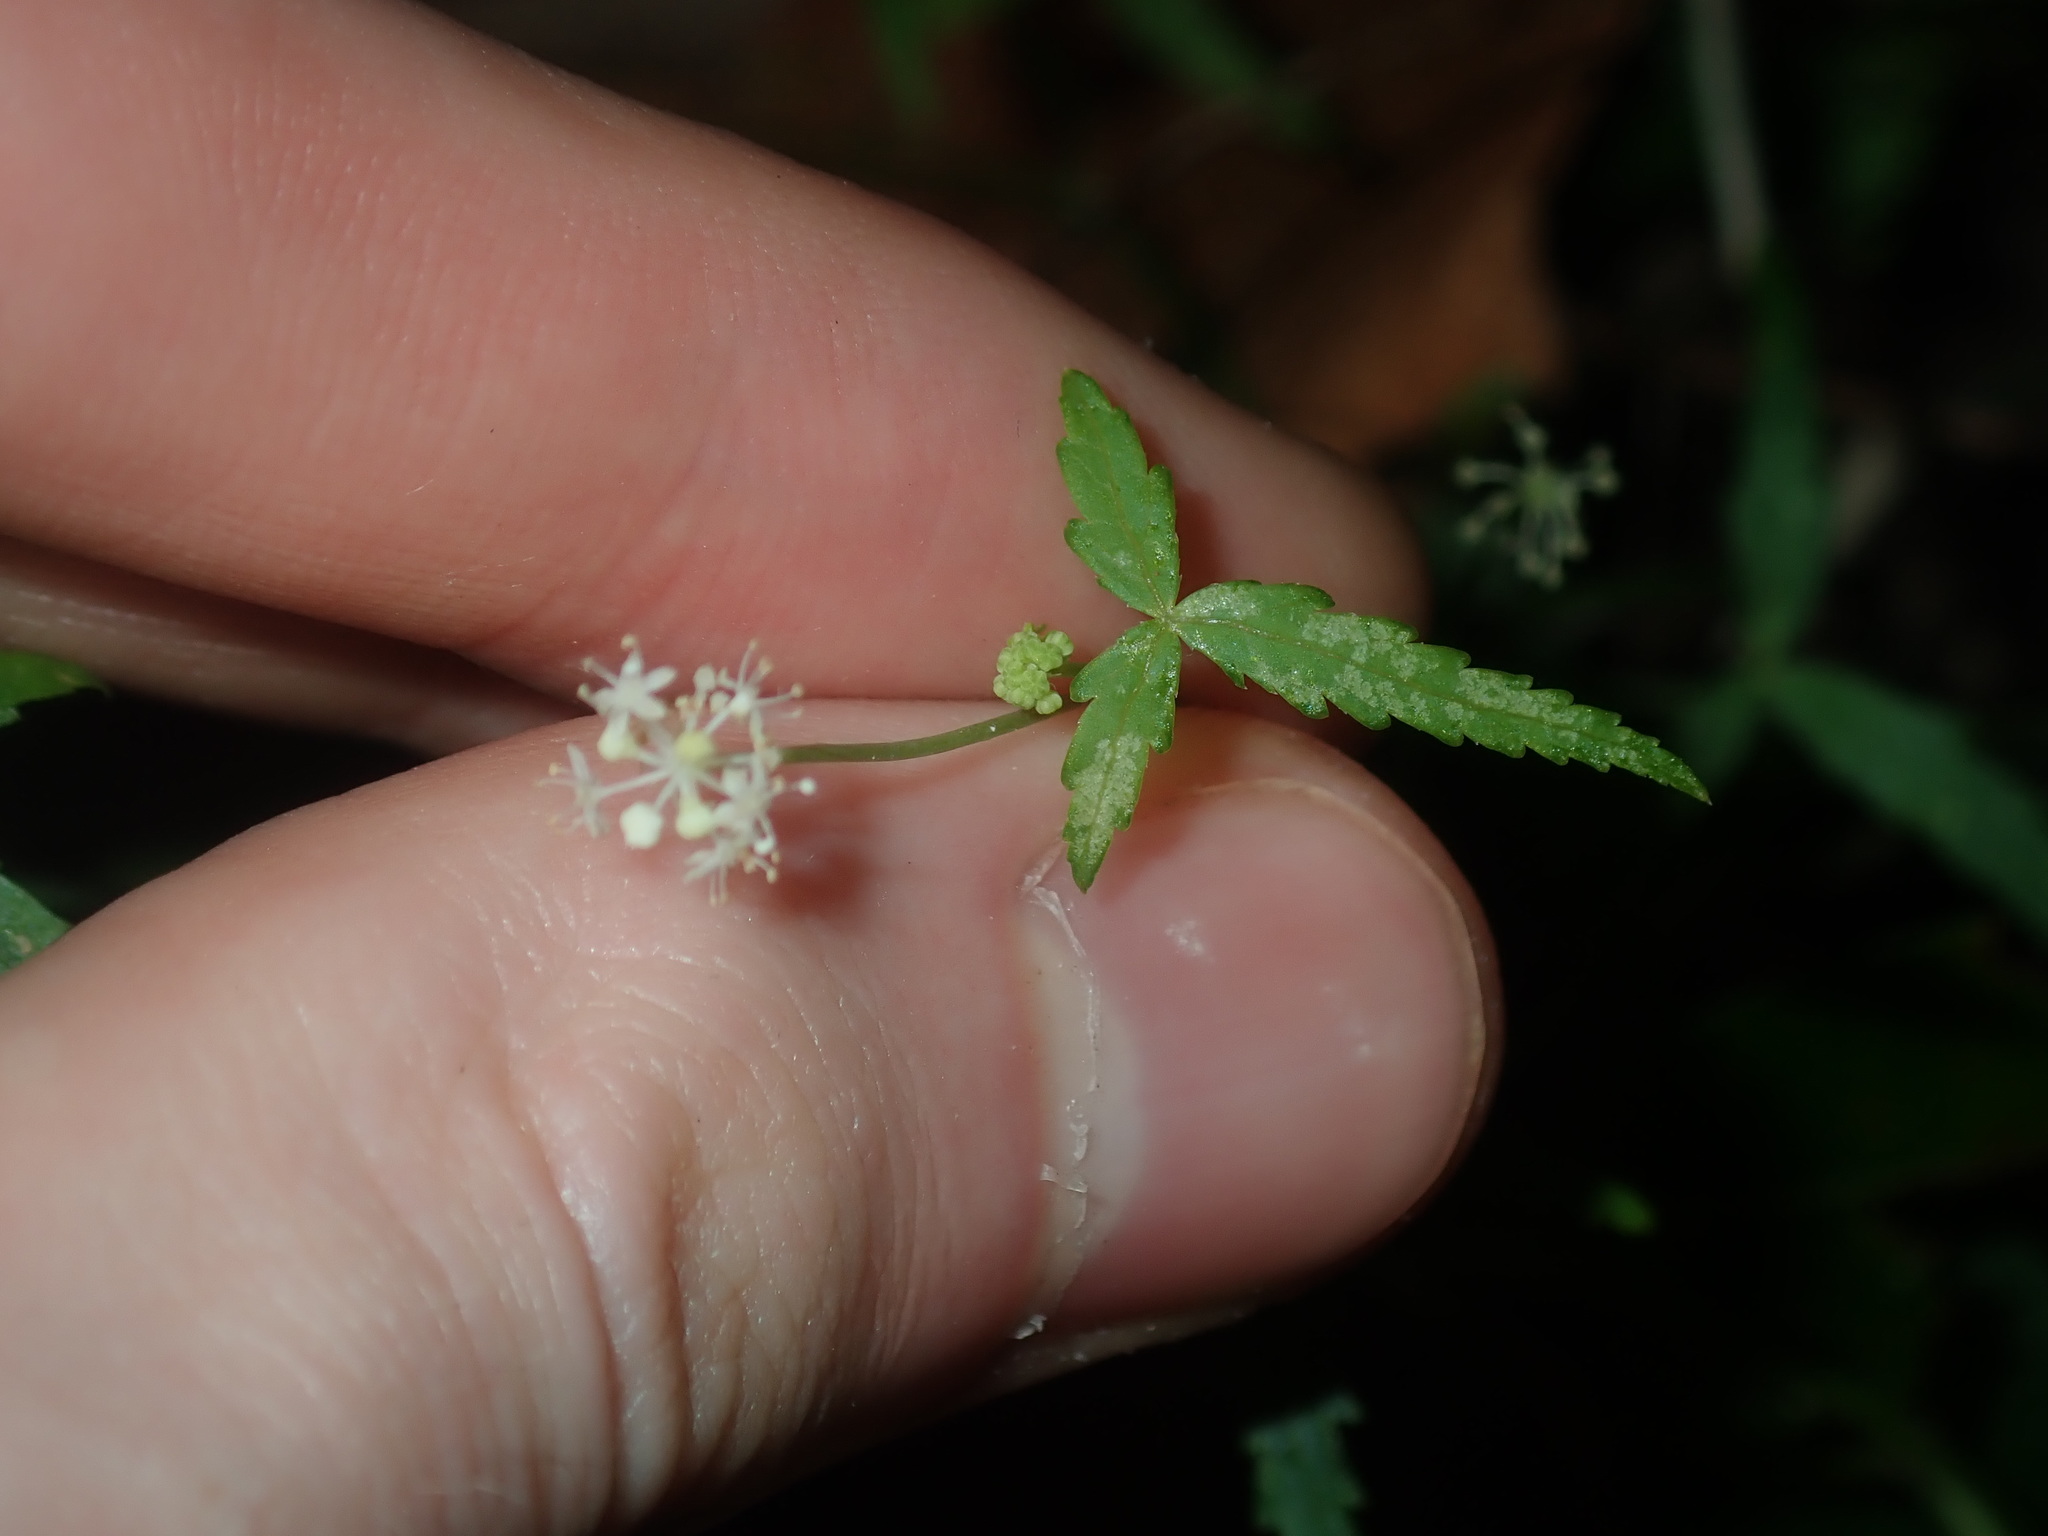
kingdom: Plantae
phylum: Tracheophyta
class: Magnoliopsida
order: Apiales
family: Araliaceae
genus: Hydrocotyle
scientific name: Hydrocotyle geraniifolia
